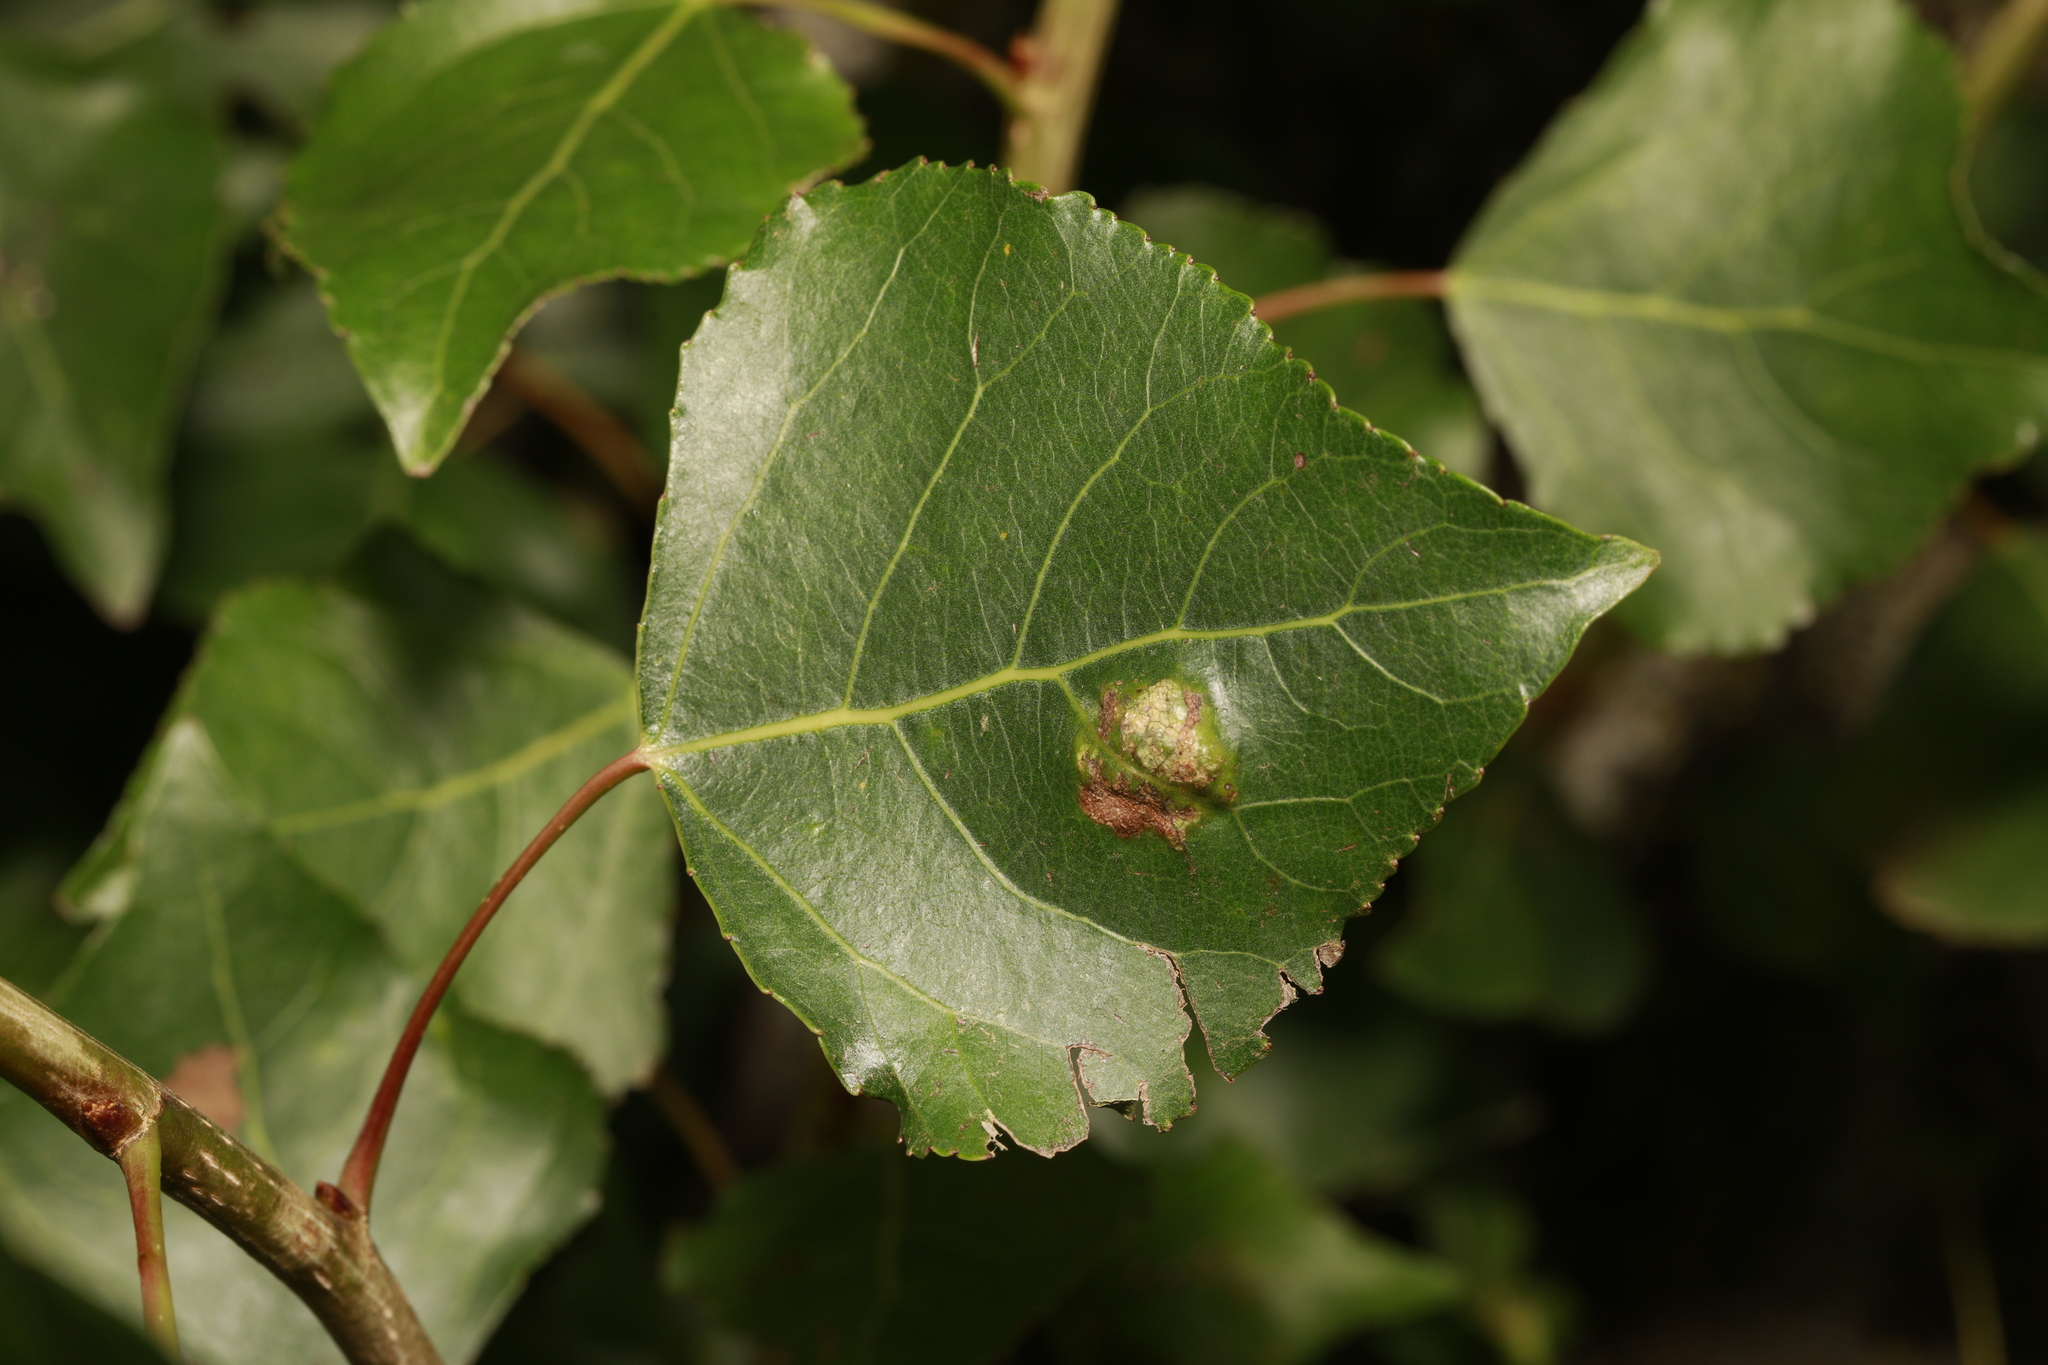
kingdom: Animalia
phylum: Arthropoda
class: Arachnida
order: Trombidiformes
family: Eriophyidae
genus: Phyllocoptes
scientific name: Phyllocoptes populi
